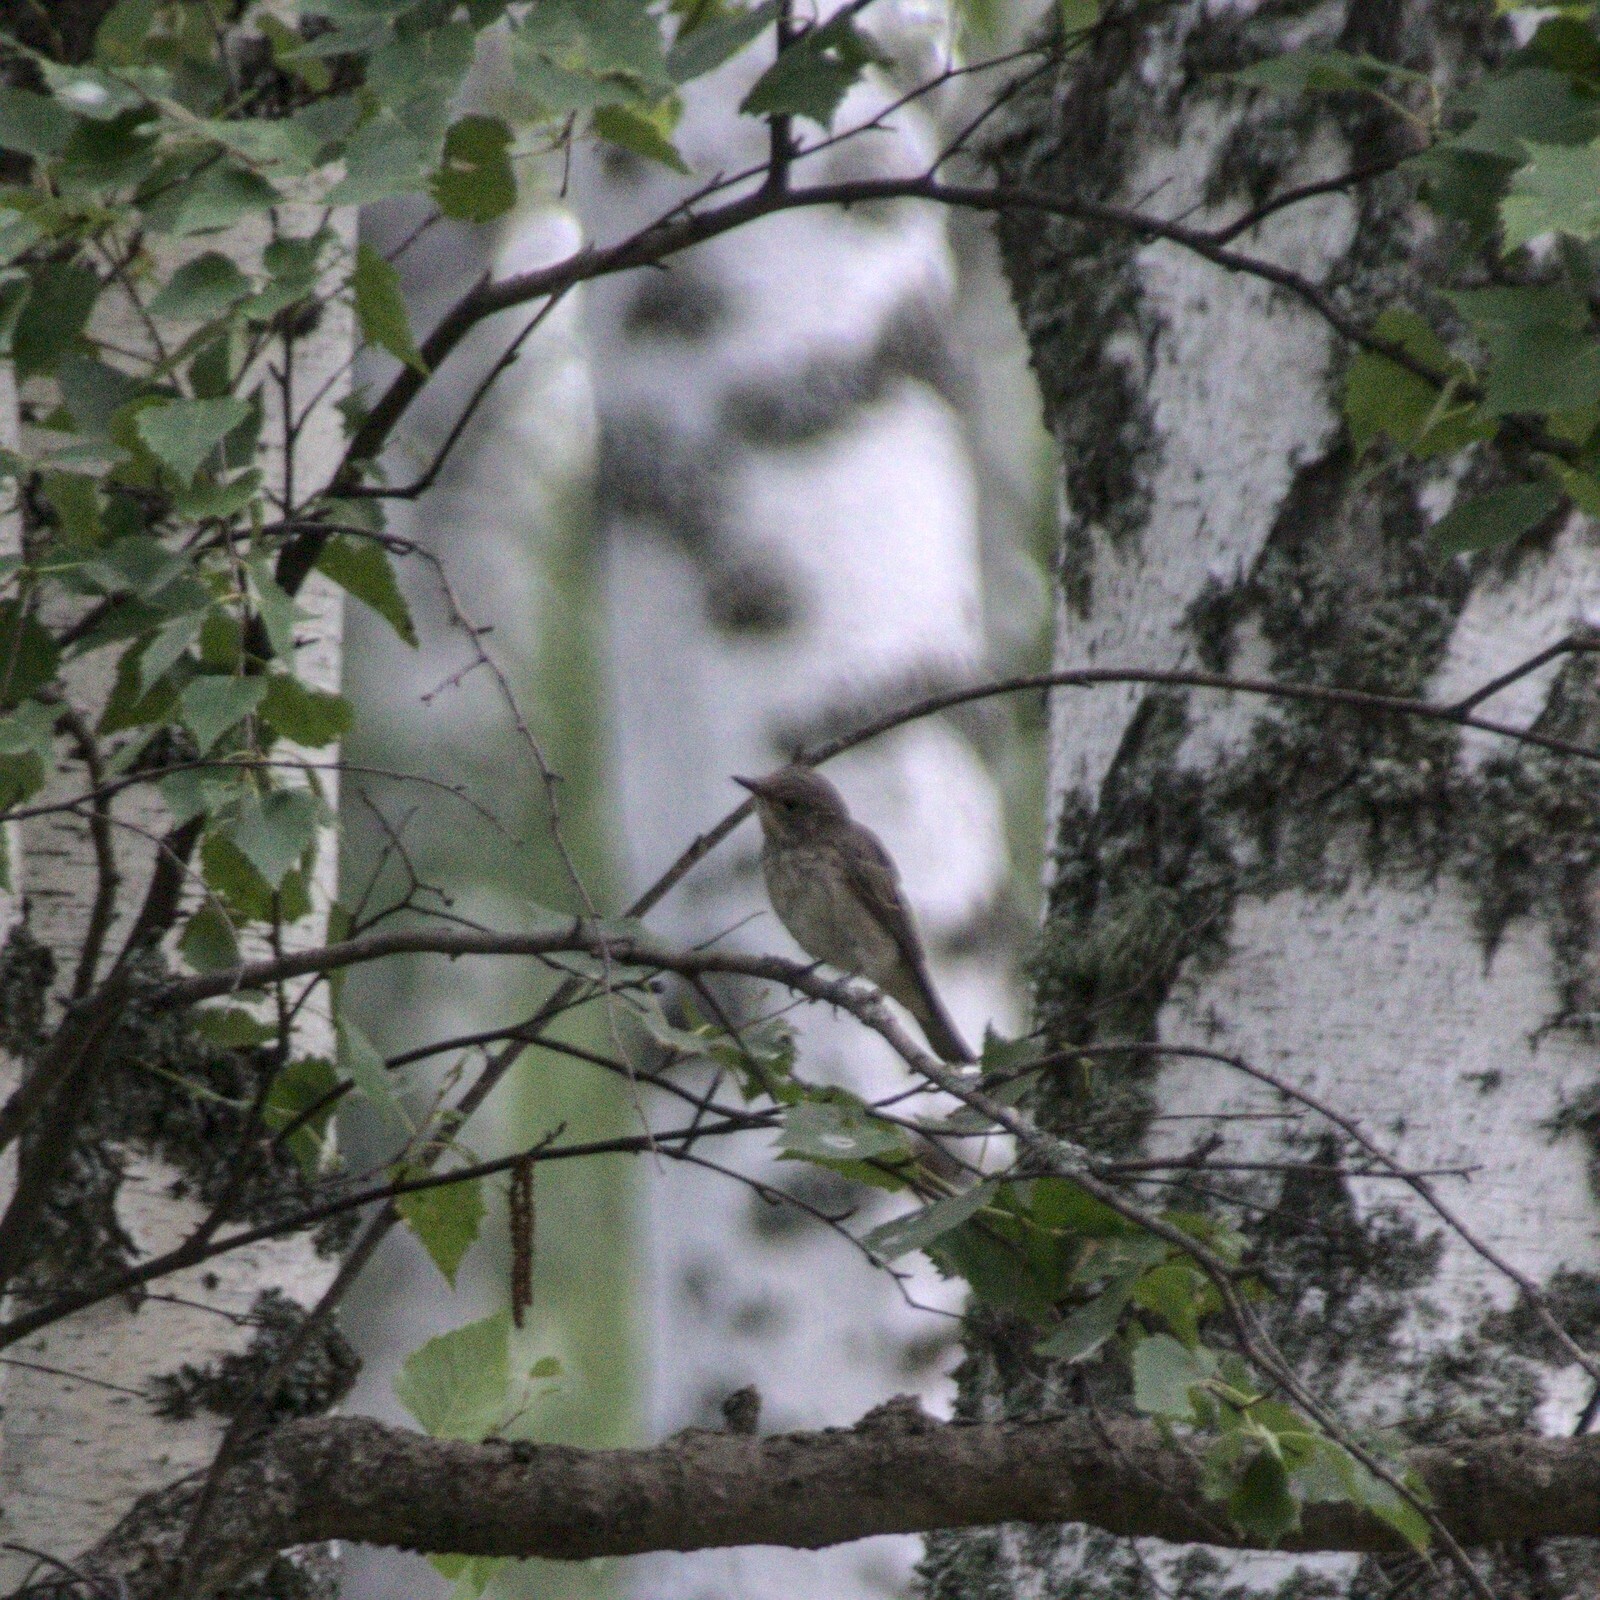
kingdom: Animalia
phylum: Chordata
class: Aves
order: Passeriformes
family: Muscicapidae
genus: Muscicapa
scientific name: Muscicapa striata
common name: Spotted flycatcher
